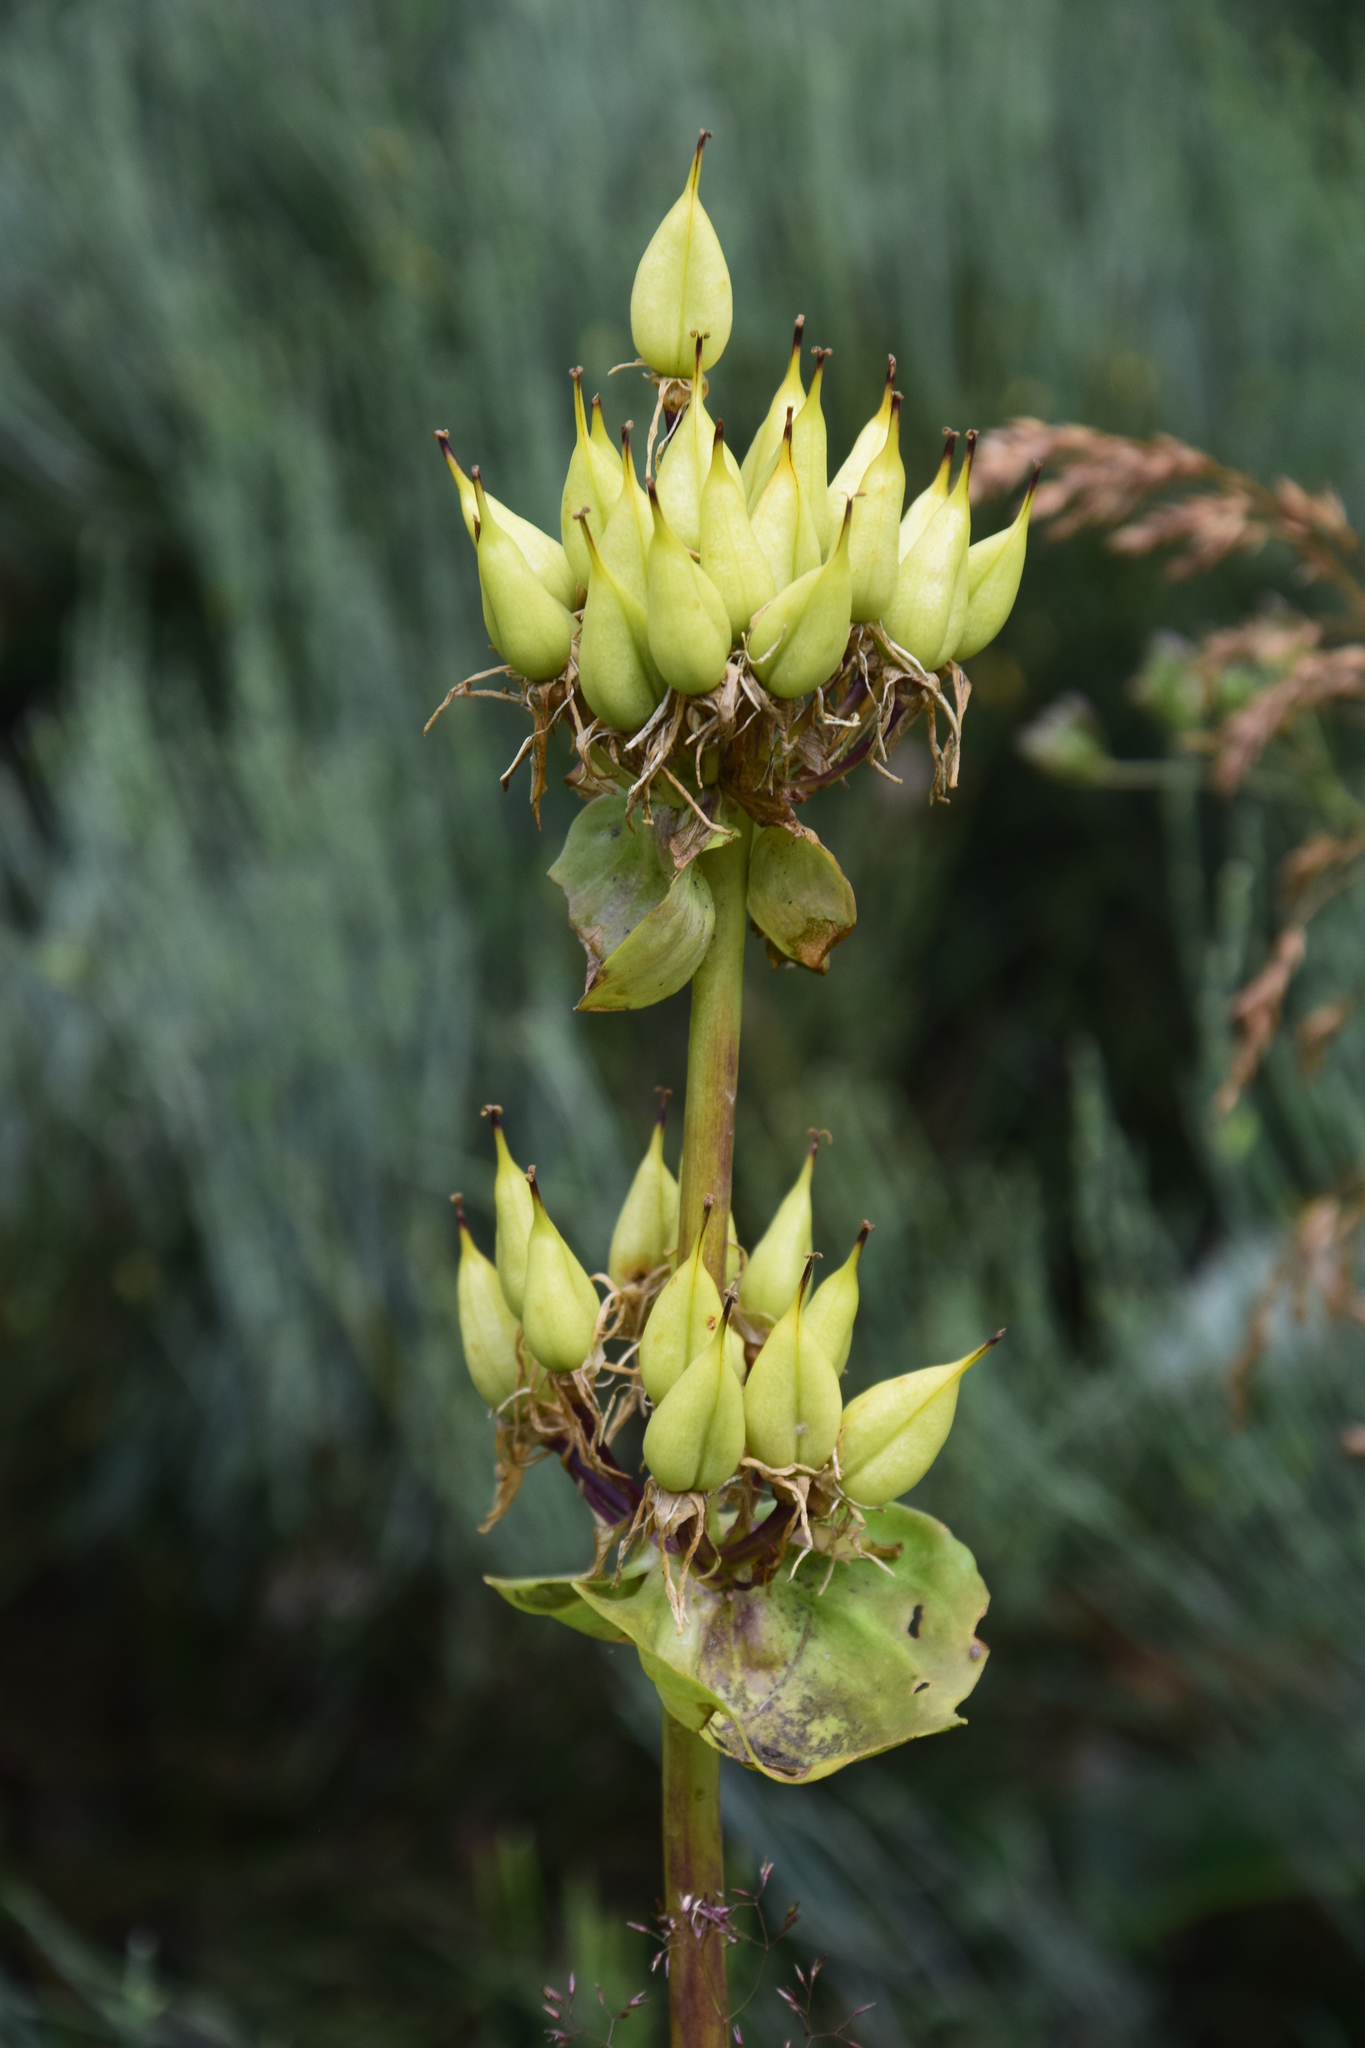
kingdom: Plantae
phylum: Tracheophyta
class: Magnoliopsida
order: Gentianales
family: Gentianaceae
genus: Gentiana
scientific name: Gentiana lutea
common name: Great yellow gentian
